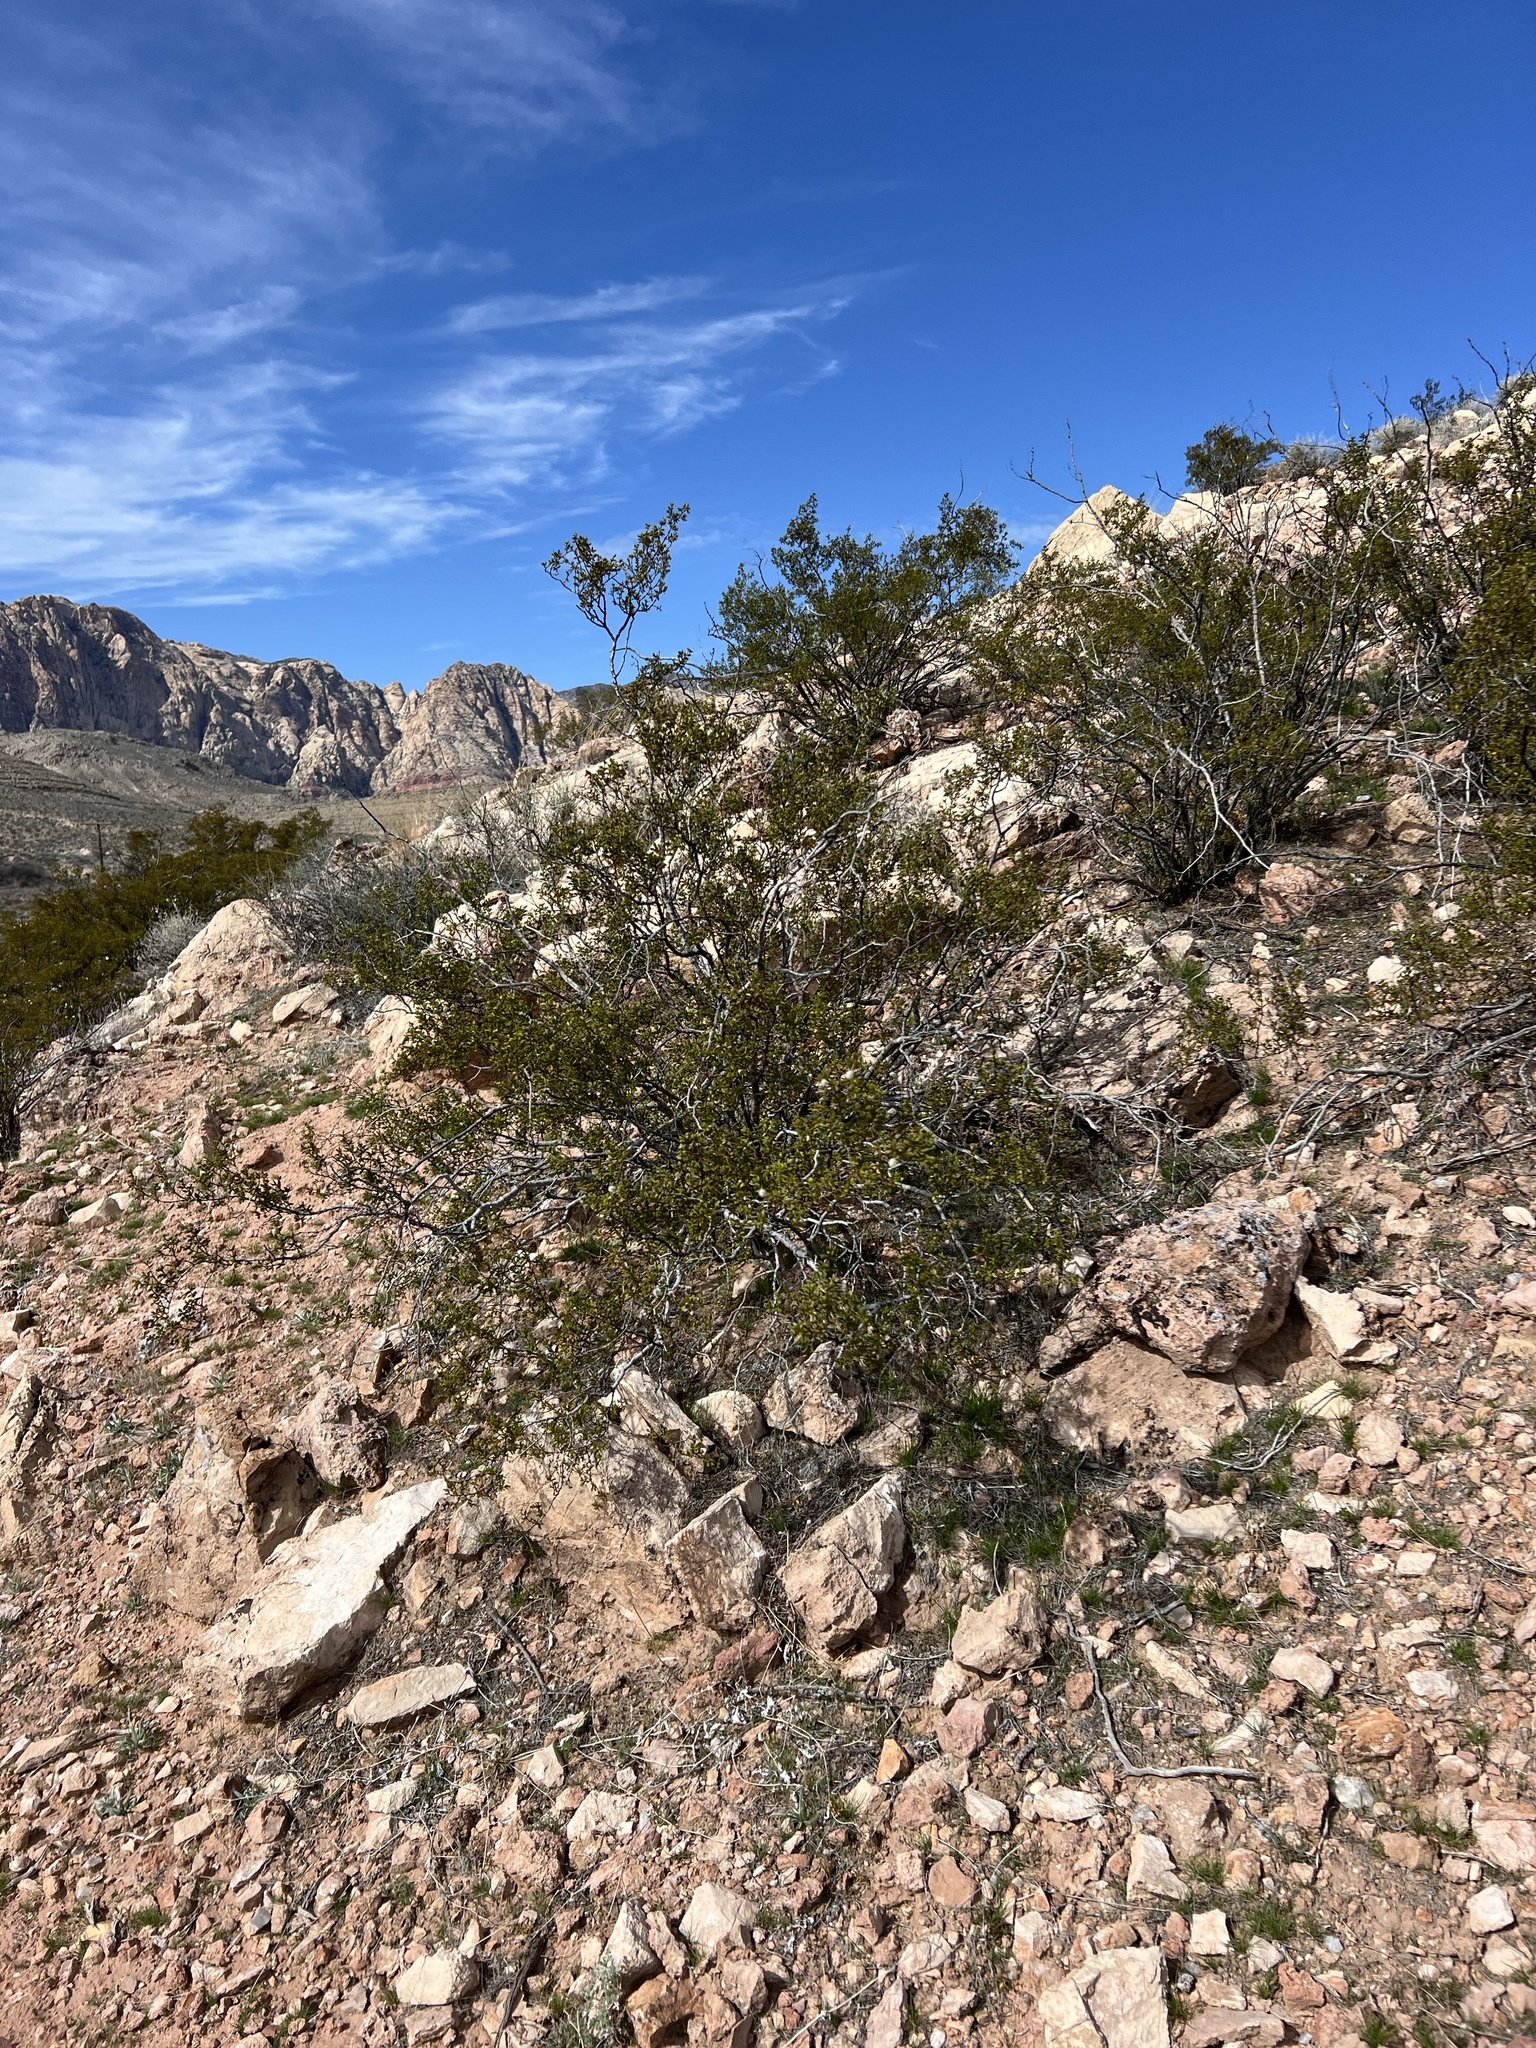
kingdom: Plantae
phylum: Tracheophyta
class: Magnoliopsida
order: Zygophyllales
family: Zygophyllaceae
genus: Larrea
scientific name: Larrea tridentata
